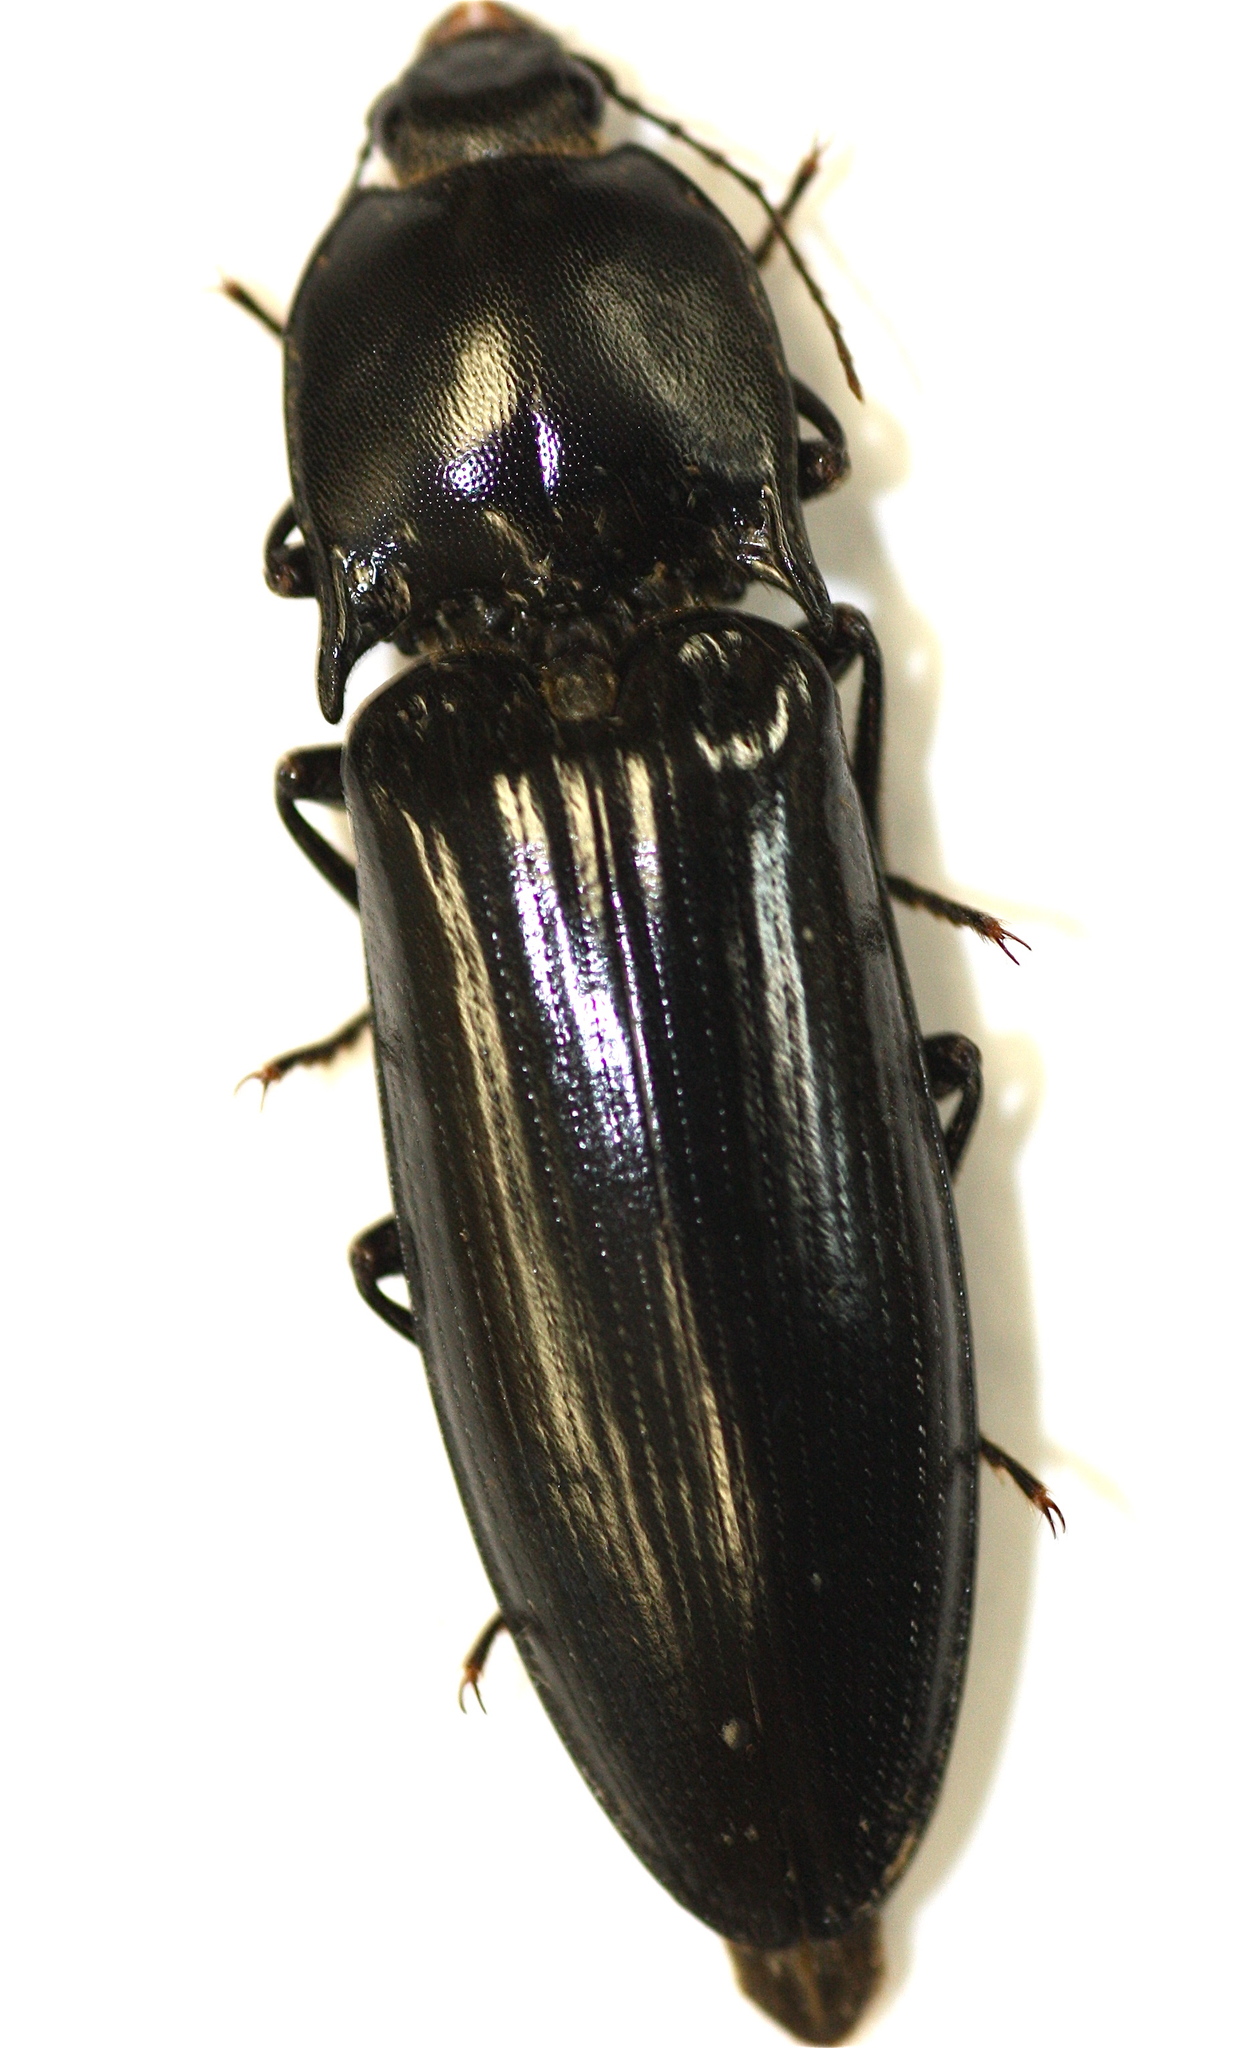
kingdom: Animalia
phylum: Arthropoda
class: Insecta
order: Coleoptera
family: Elateridae
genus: Melanactes
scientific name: Melanactes piceus
